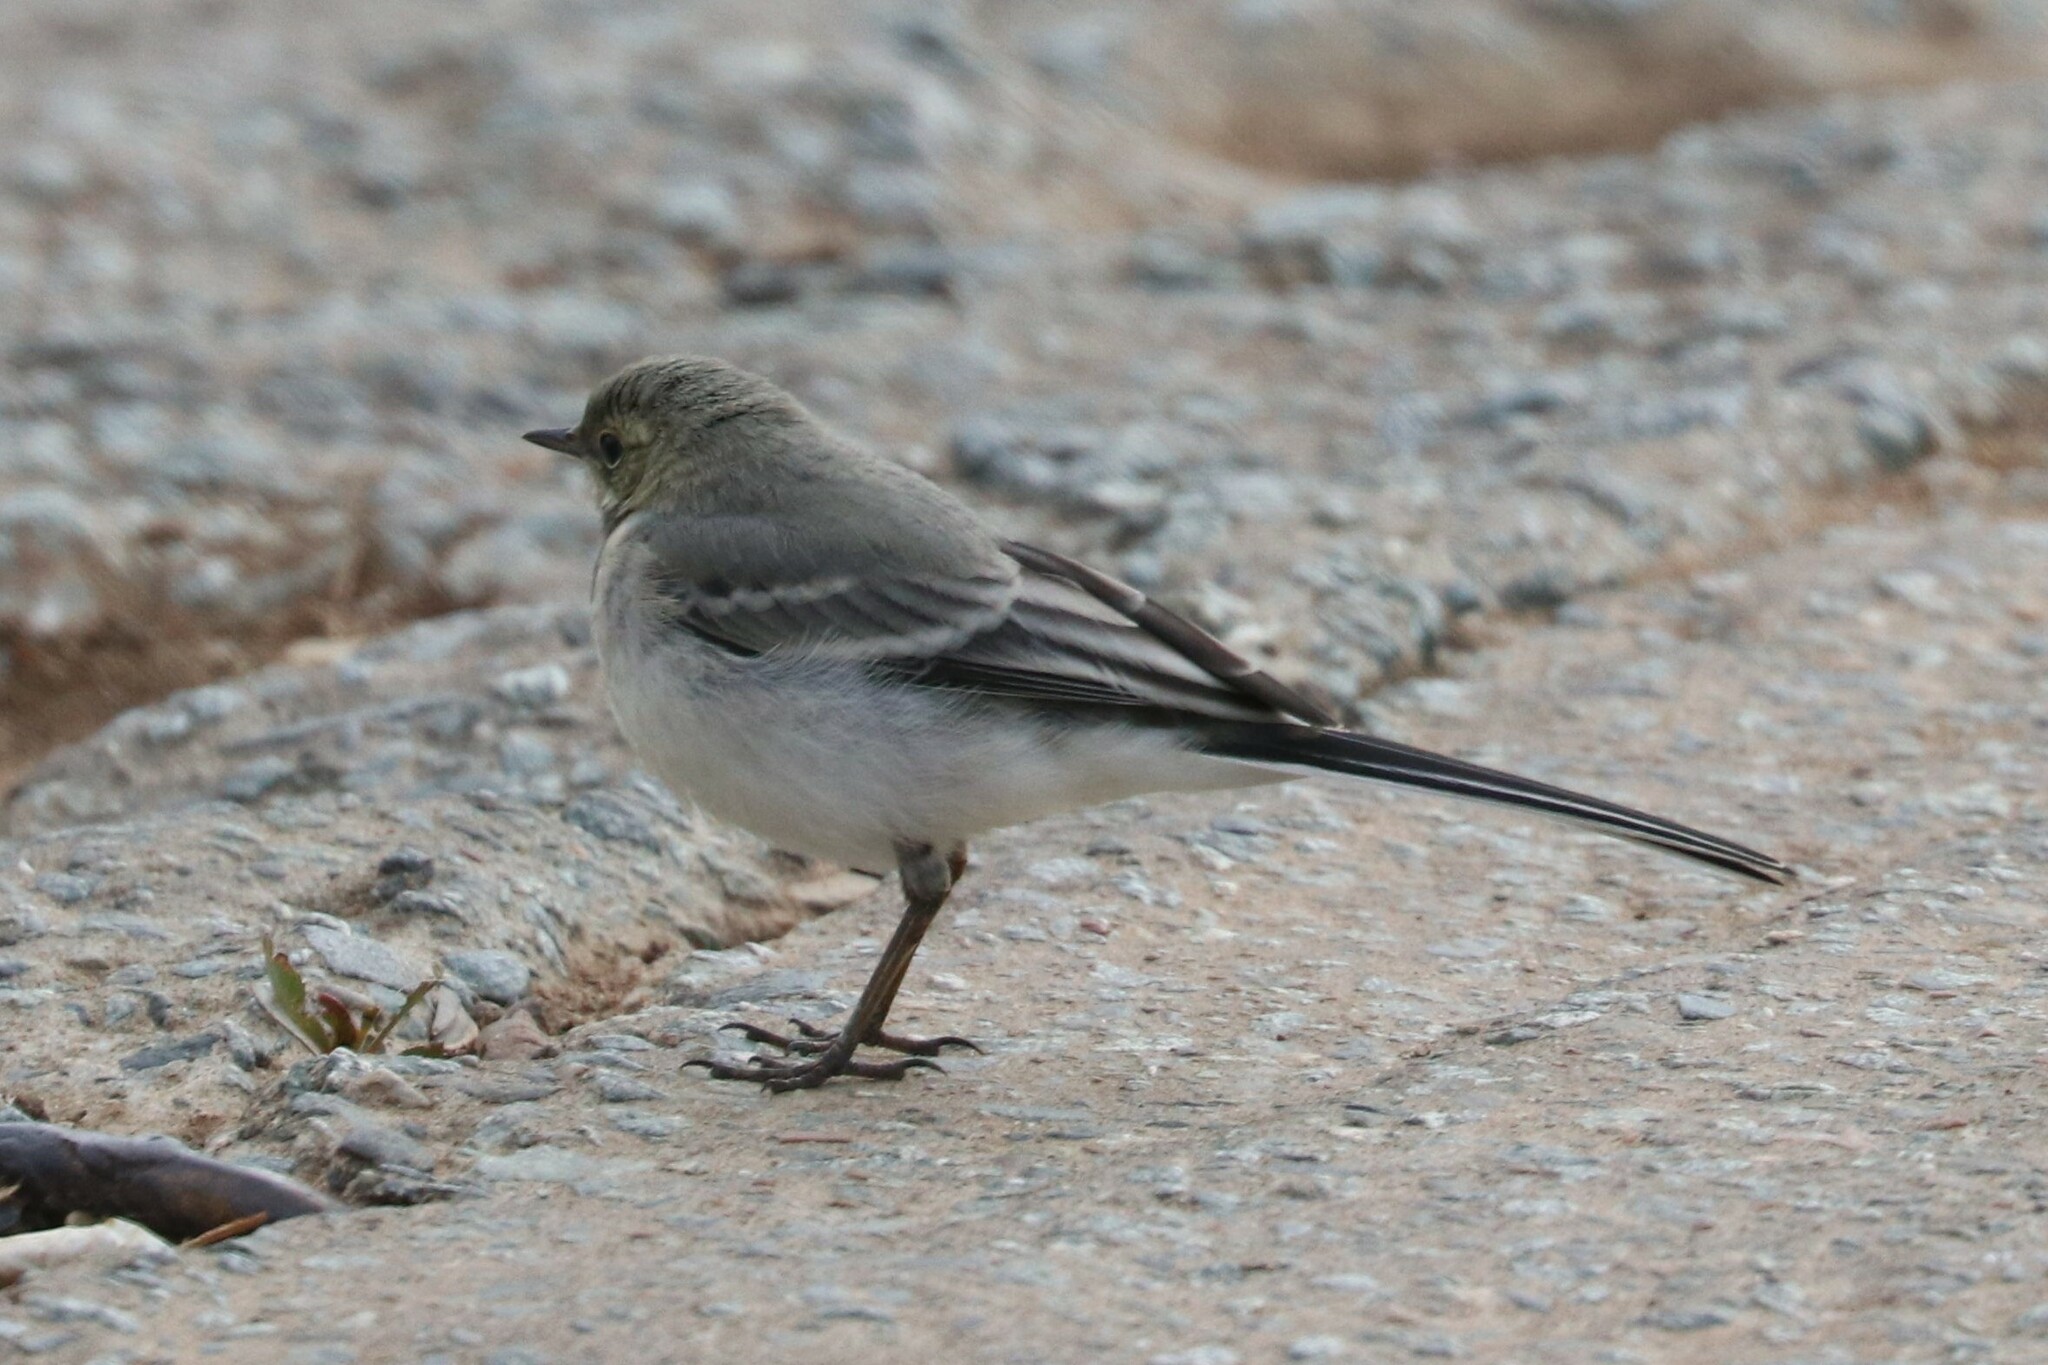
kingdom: Animalia
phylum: Chordata
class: Aves
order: Passeriformes
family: Motacillidae
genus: Motacilla
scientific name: Motacilla alba
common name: White wagtail
